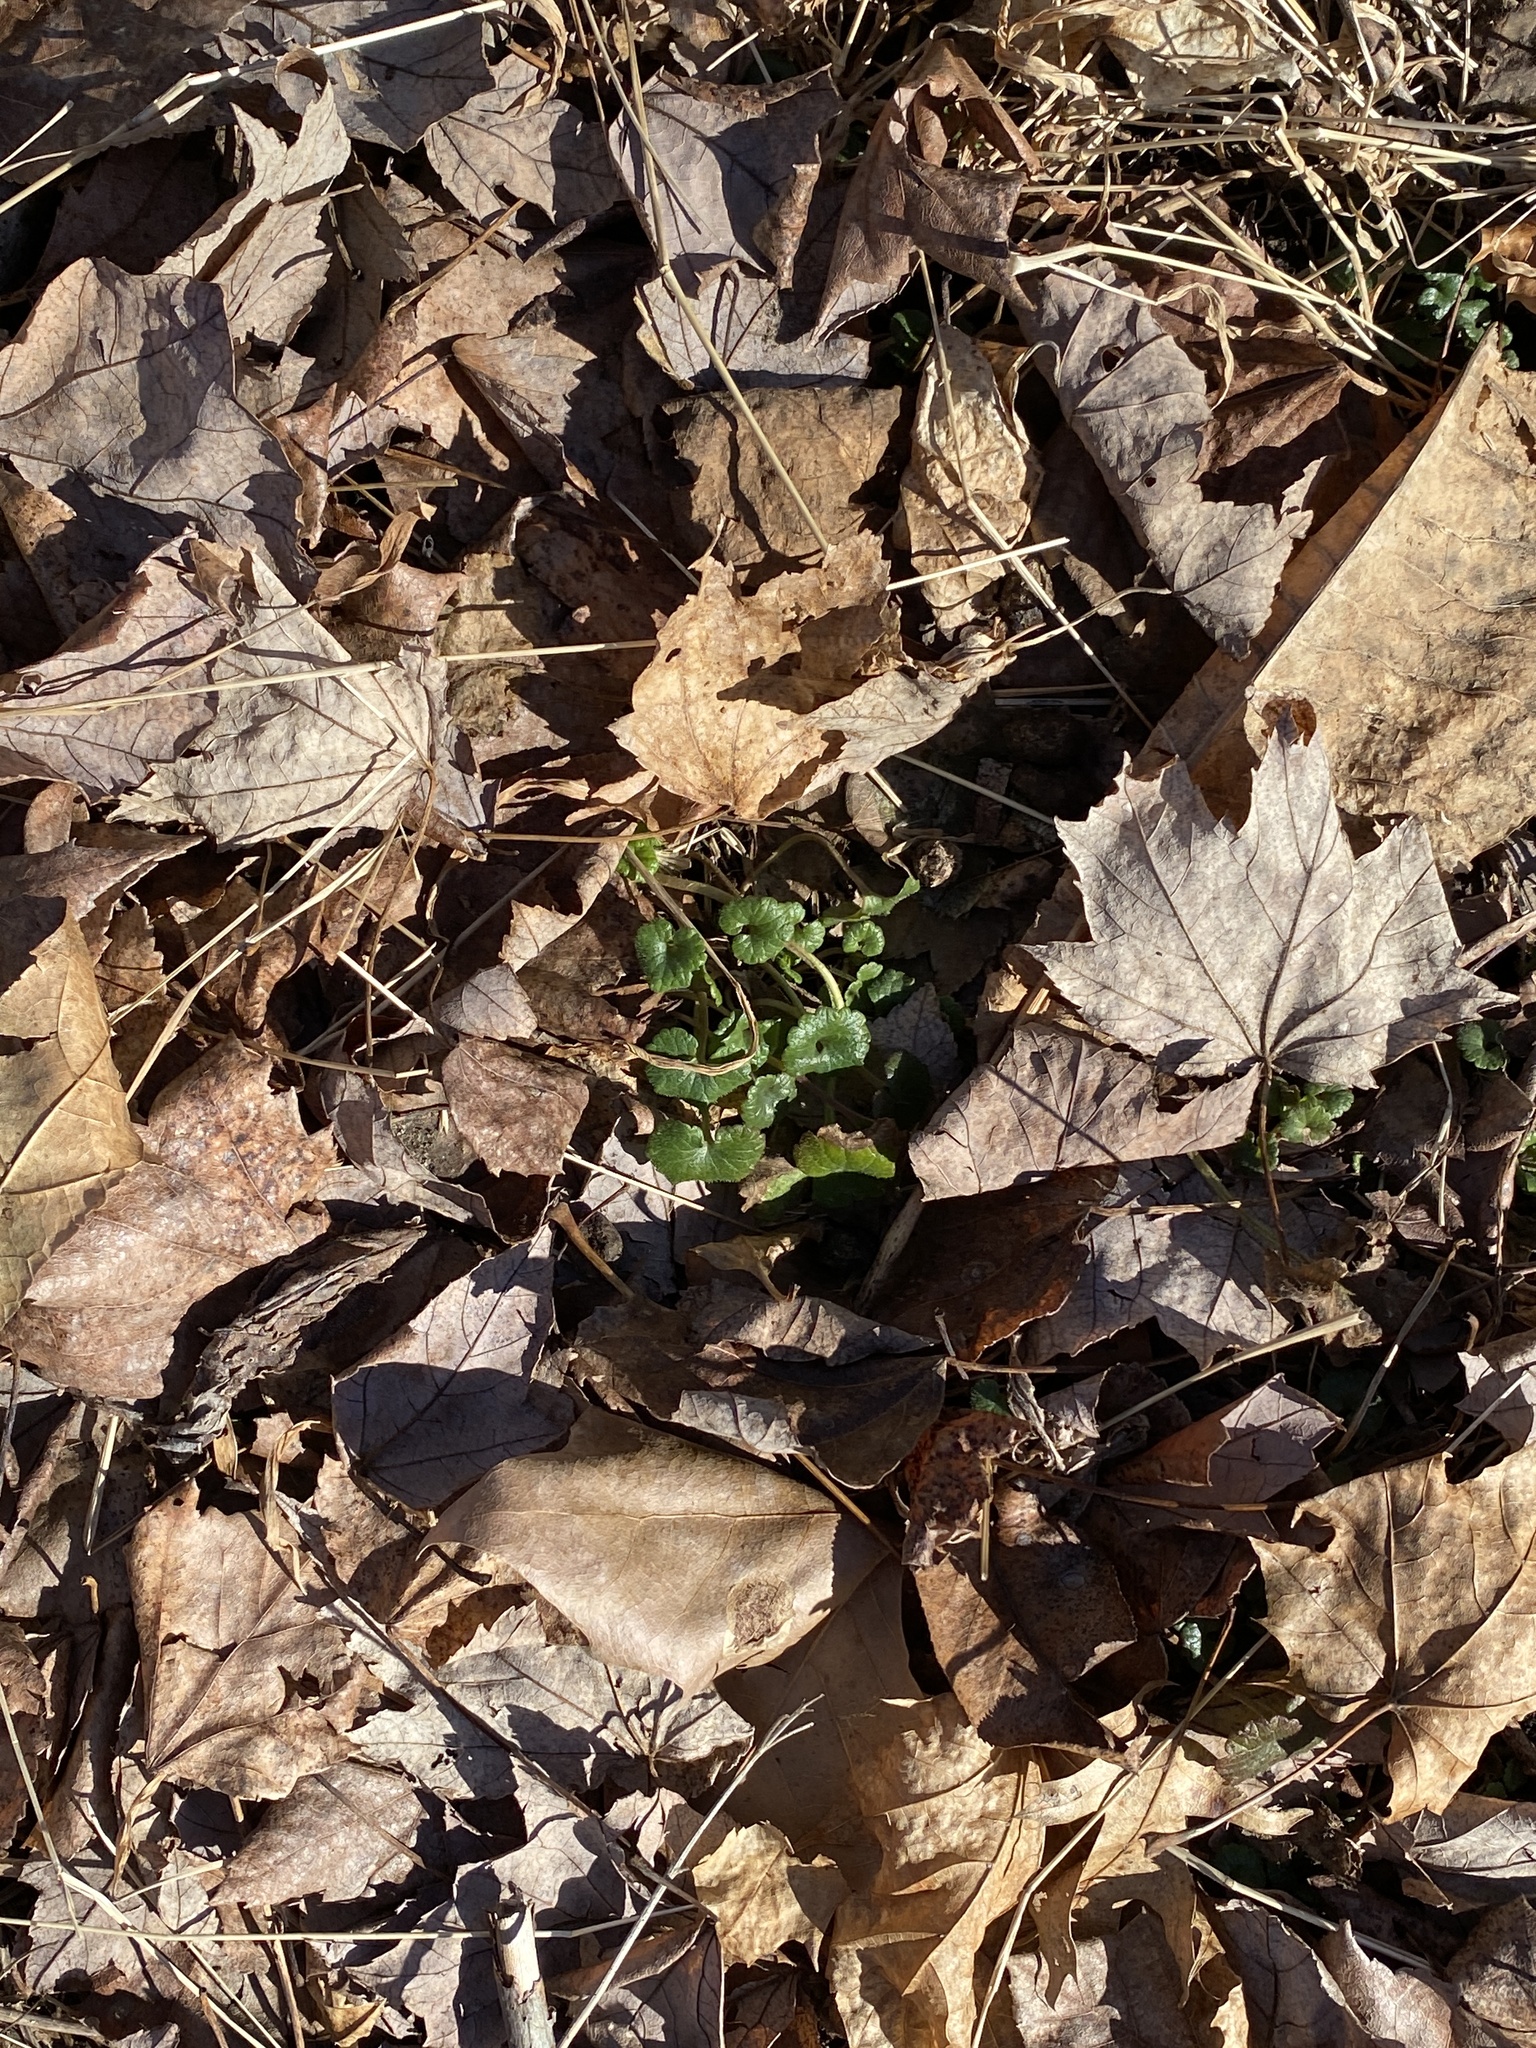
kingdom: Plantae
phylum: Tracheophyta
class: Magnoliopsida
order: Lamiales
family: Lamiaceae
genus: Glechoma
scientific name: Glechoma hederacea
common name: Ground ivy
